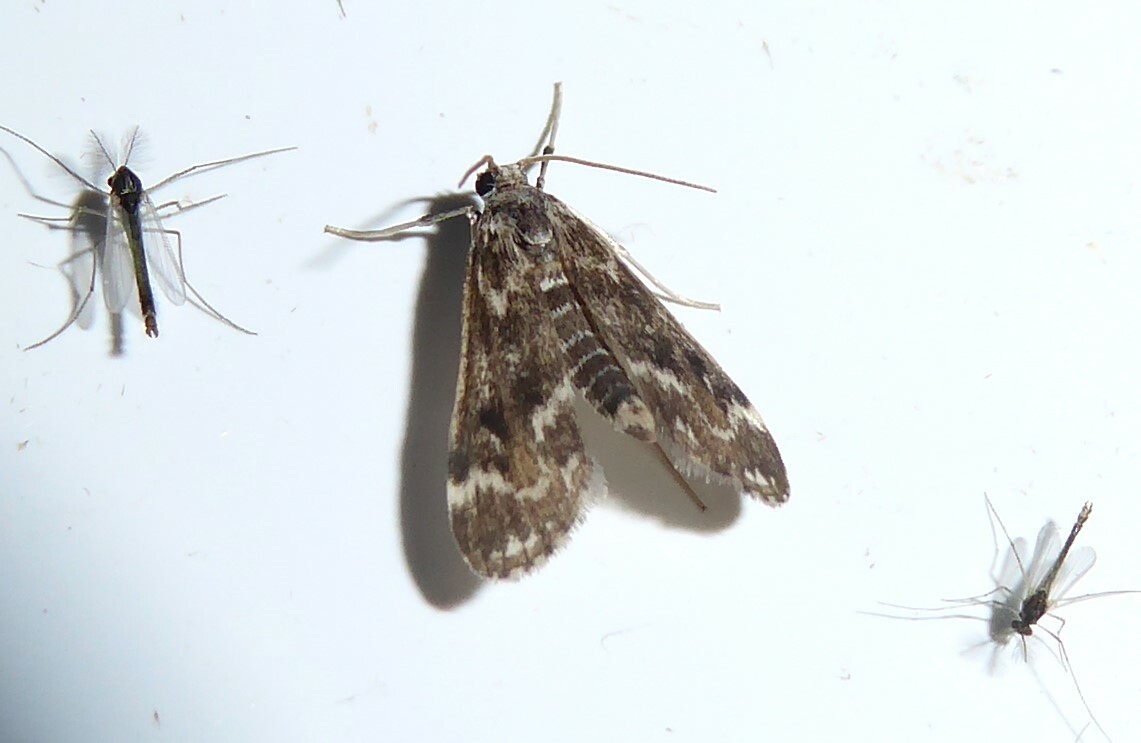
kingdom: Animalia
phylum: Arthropoda
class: Insecta
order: Lepidoptera
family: Crambidae
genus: Hygraula
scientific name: Hygraula nitens
